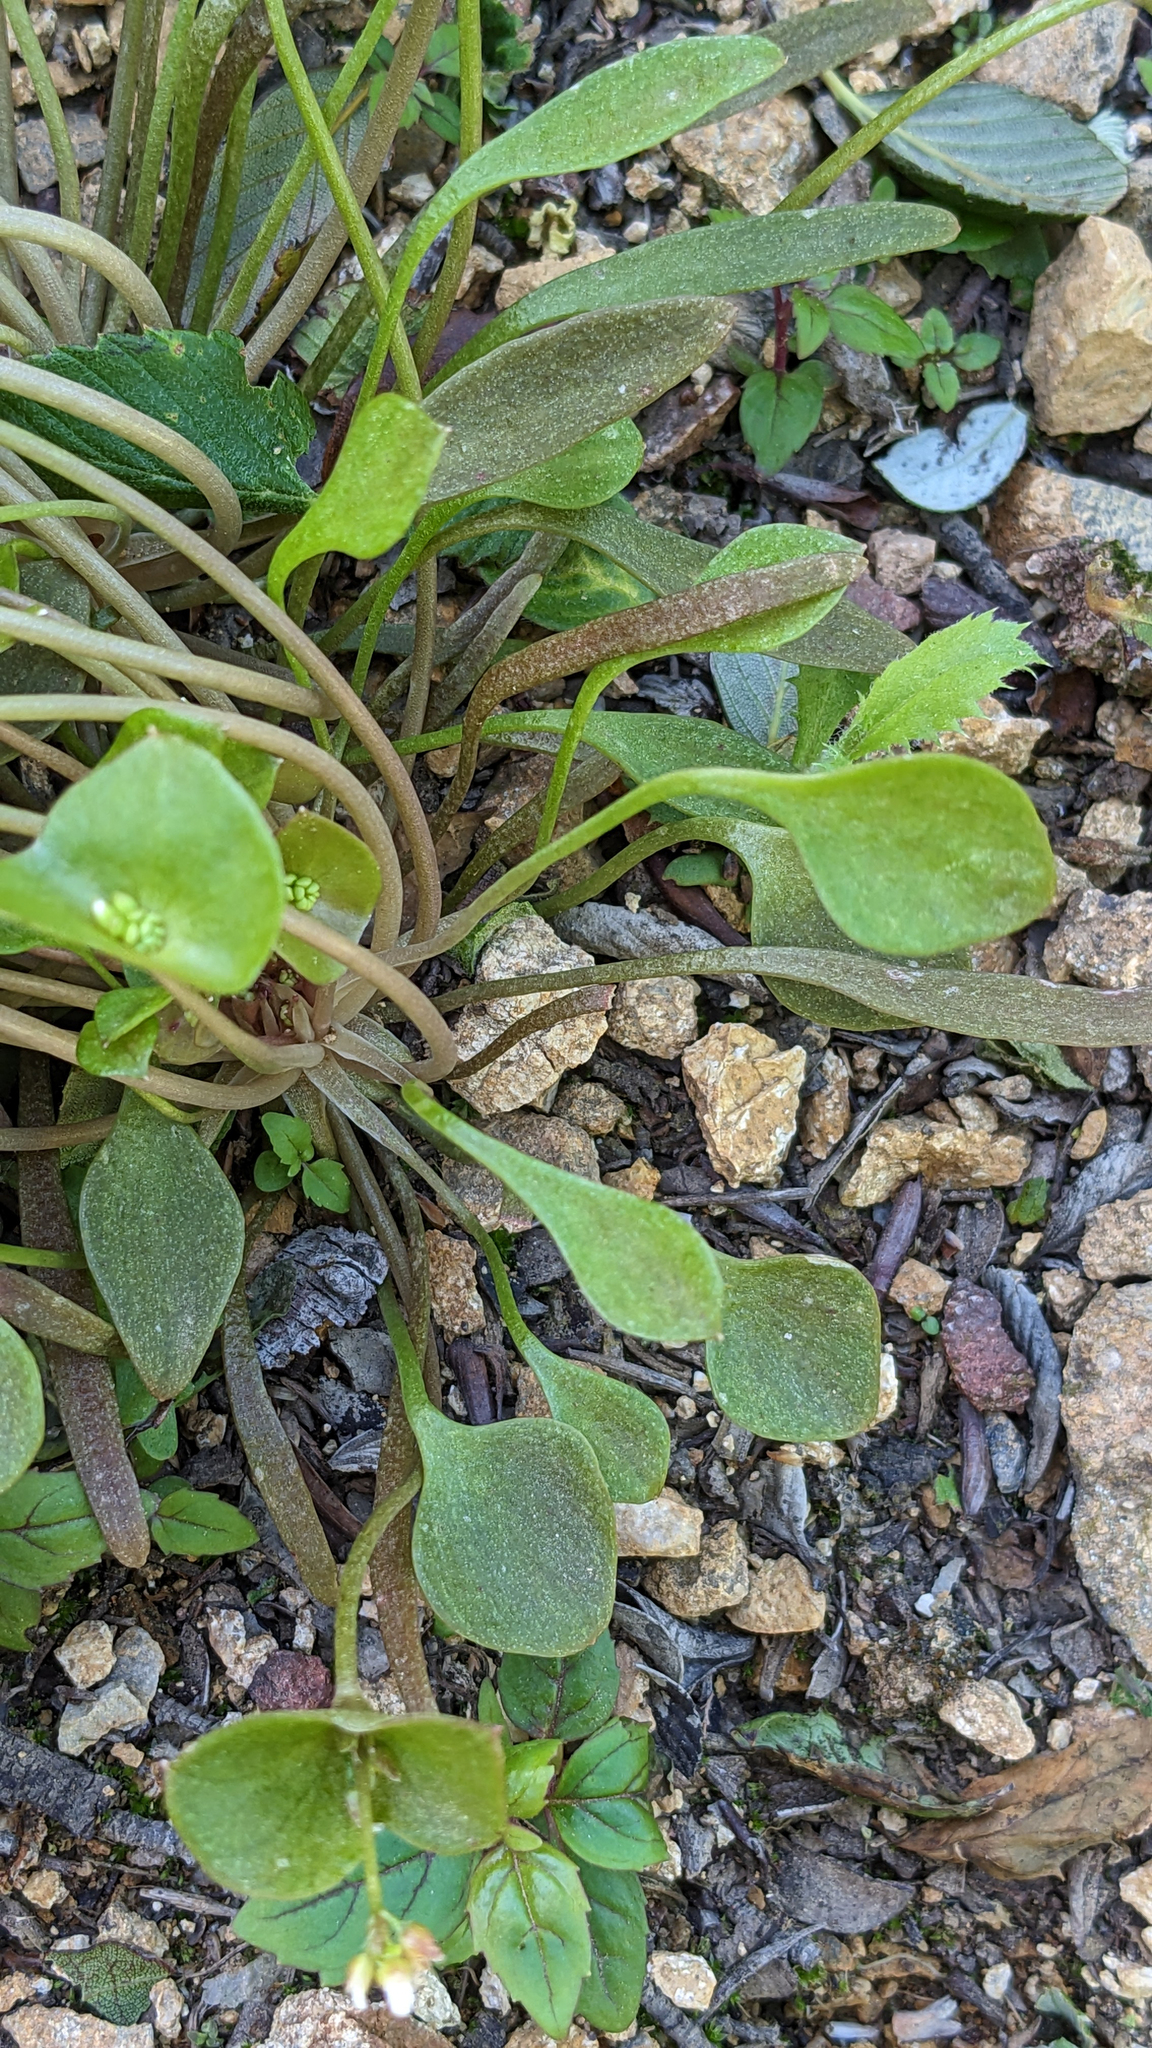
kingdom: Plantae
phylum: Tracheophyta
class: Magnoliopsida
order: Caryophyllales
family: Montiaceae
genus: Claytonia
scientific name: Claytonia perfoliata
